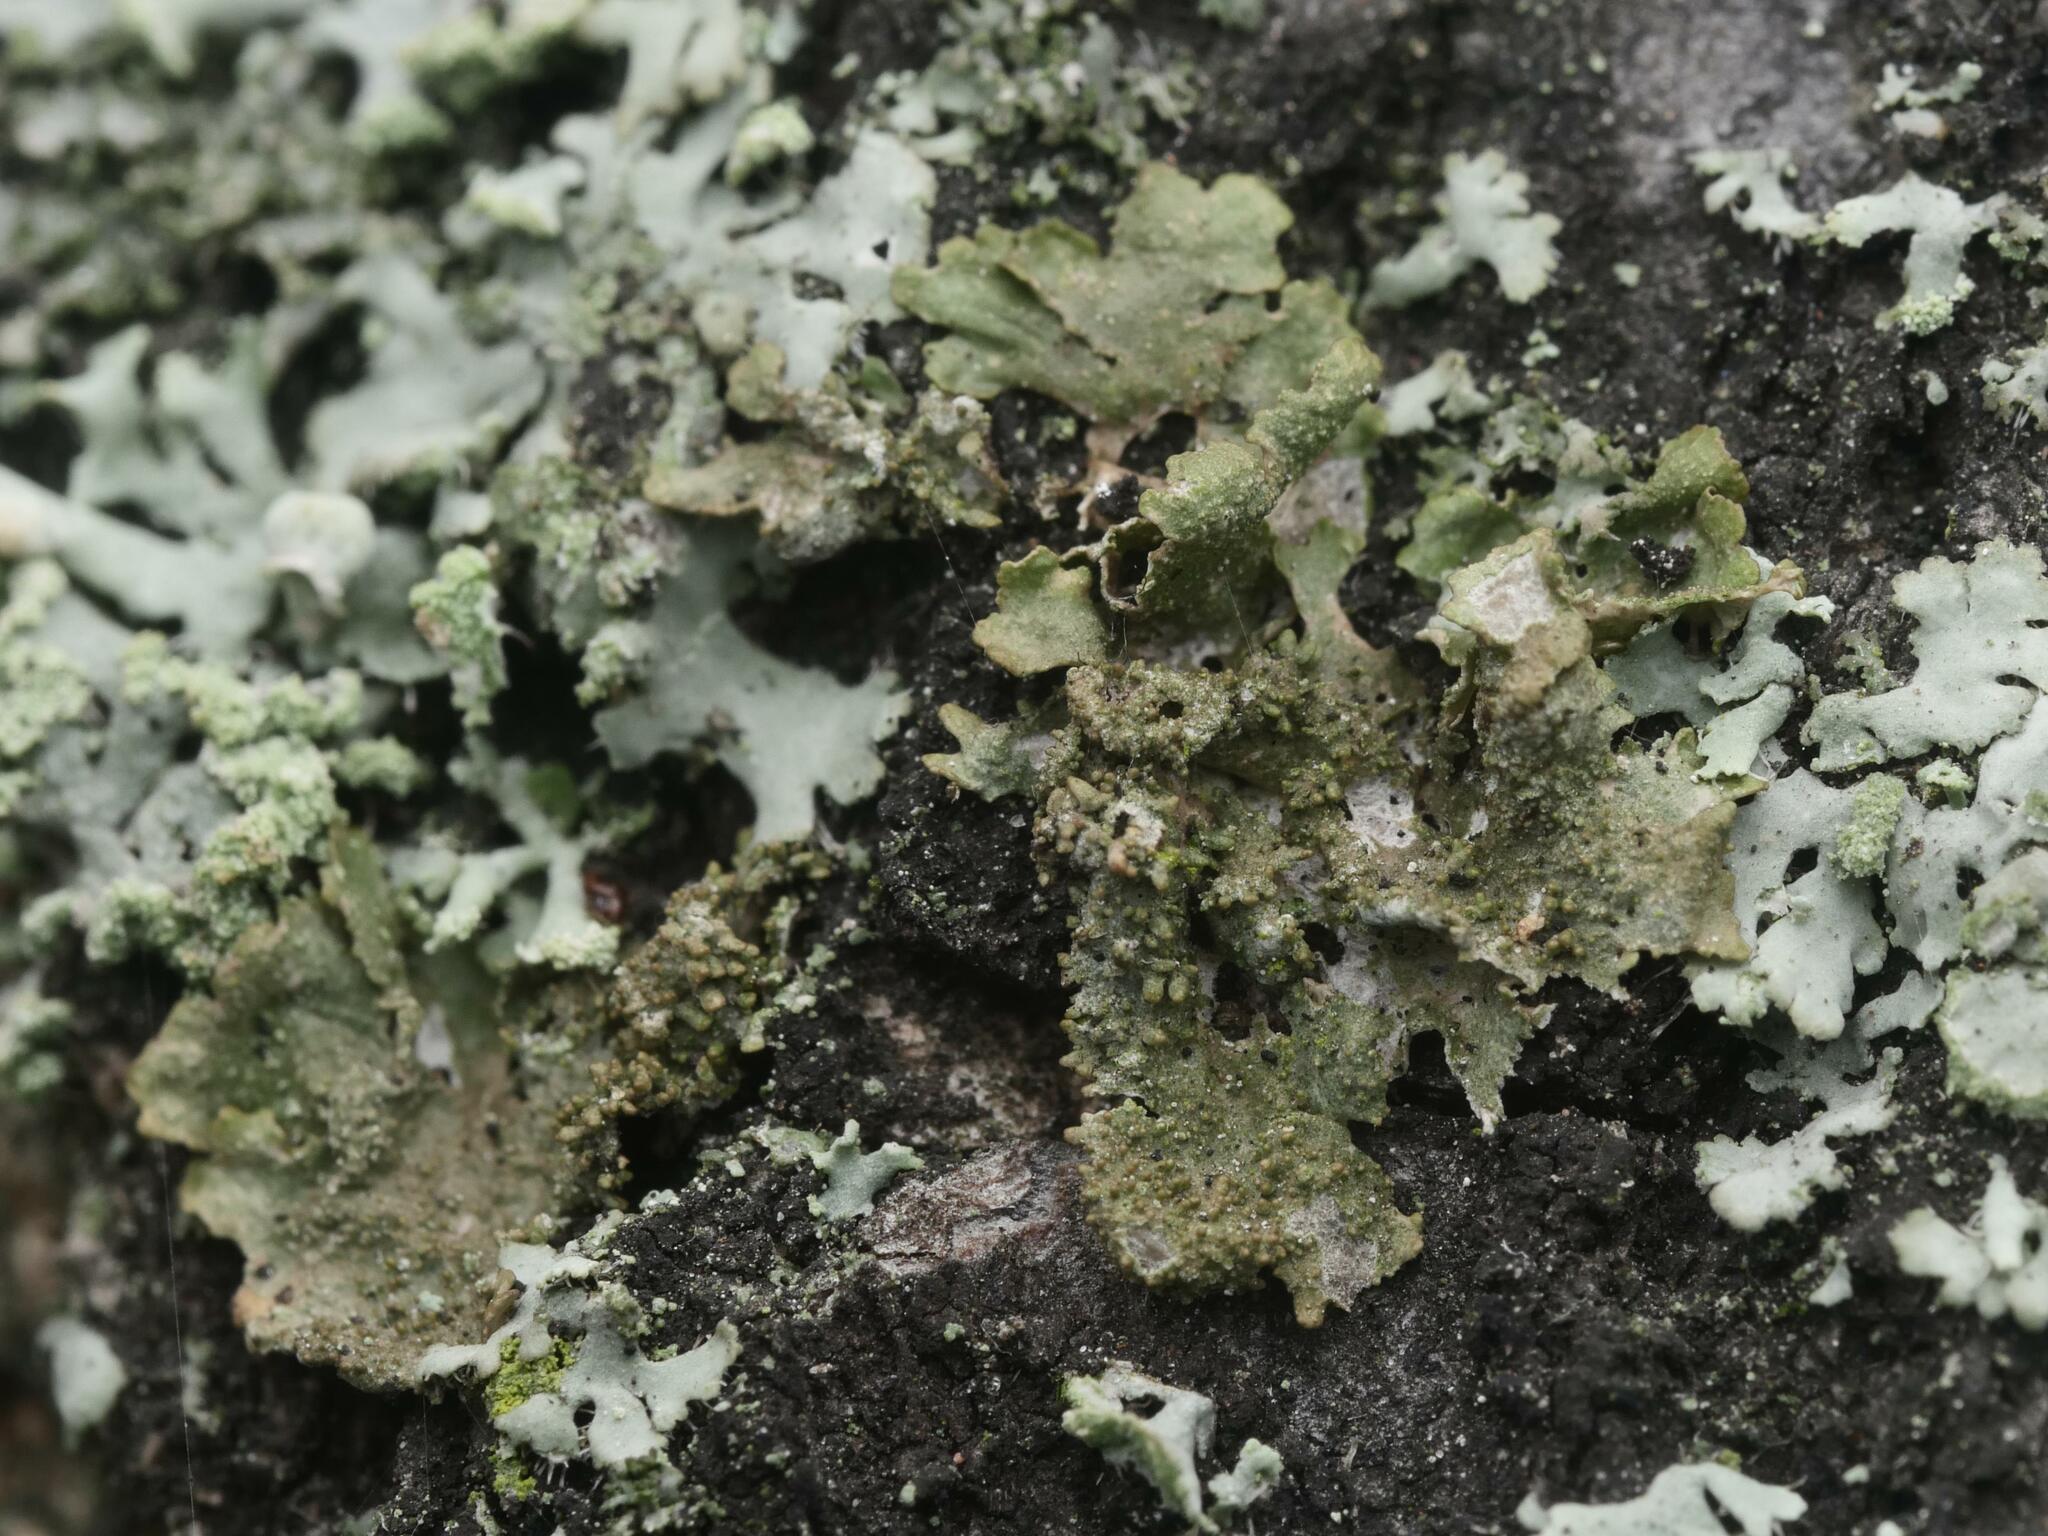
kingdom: Fungi
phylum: Ascomycota
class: Lecanoromycetes
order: Lecanorales
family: Parmeliaceae
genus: Melanohalea
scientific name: Melanohalea exasperatula
